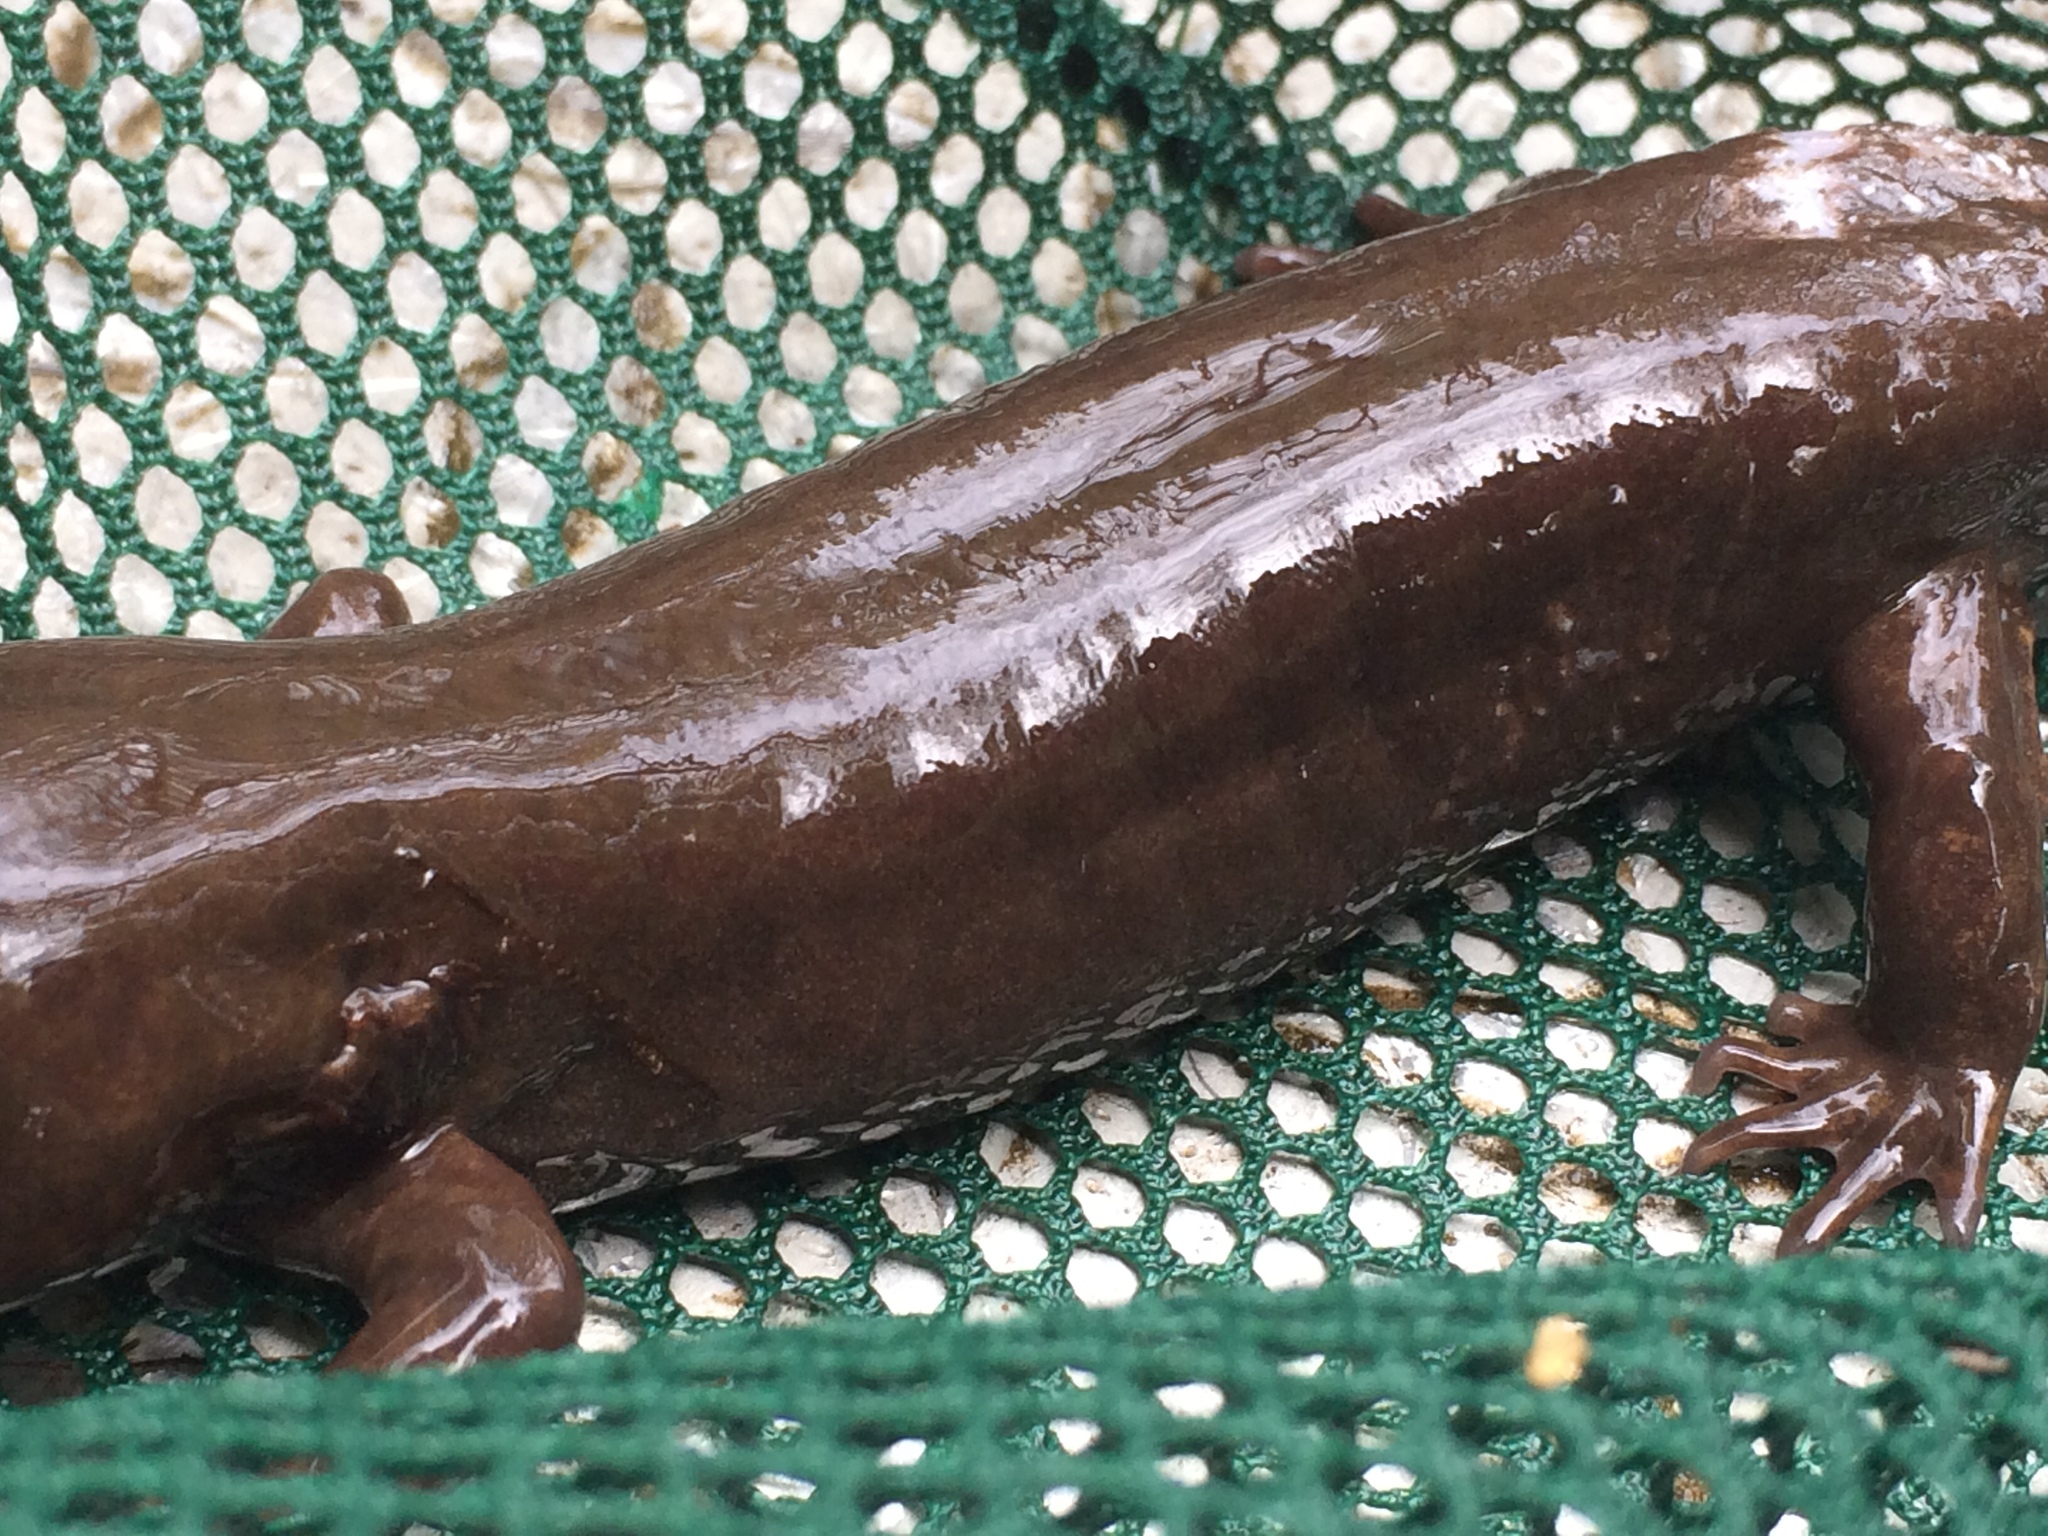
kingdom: Animalia
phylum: Chordata
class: Amphibia
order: Caudata
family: Ambystomatidae
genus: Dicamptodon
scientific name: Dicamptodon tenebrosus
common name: Coastal giant salamander
